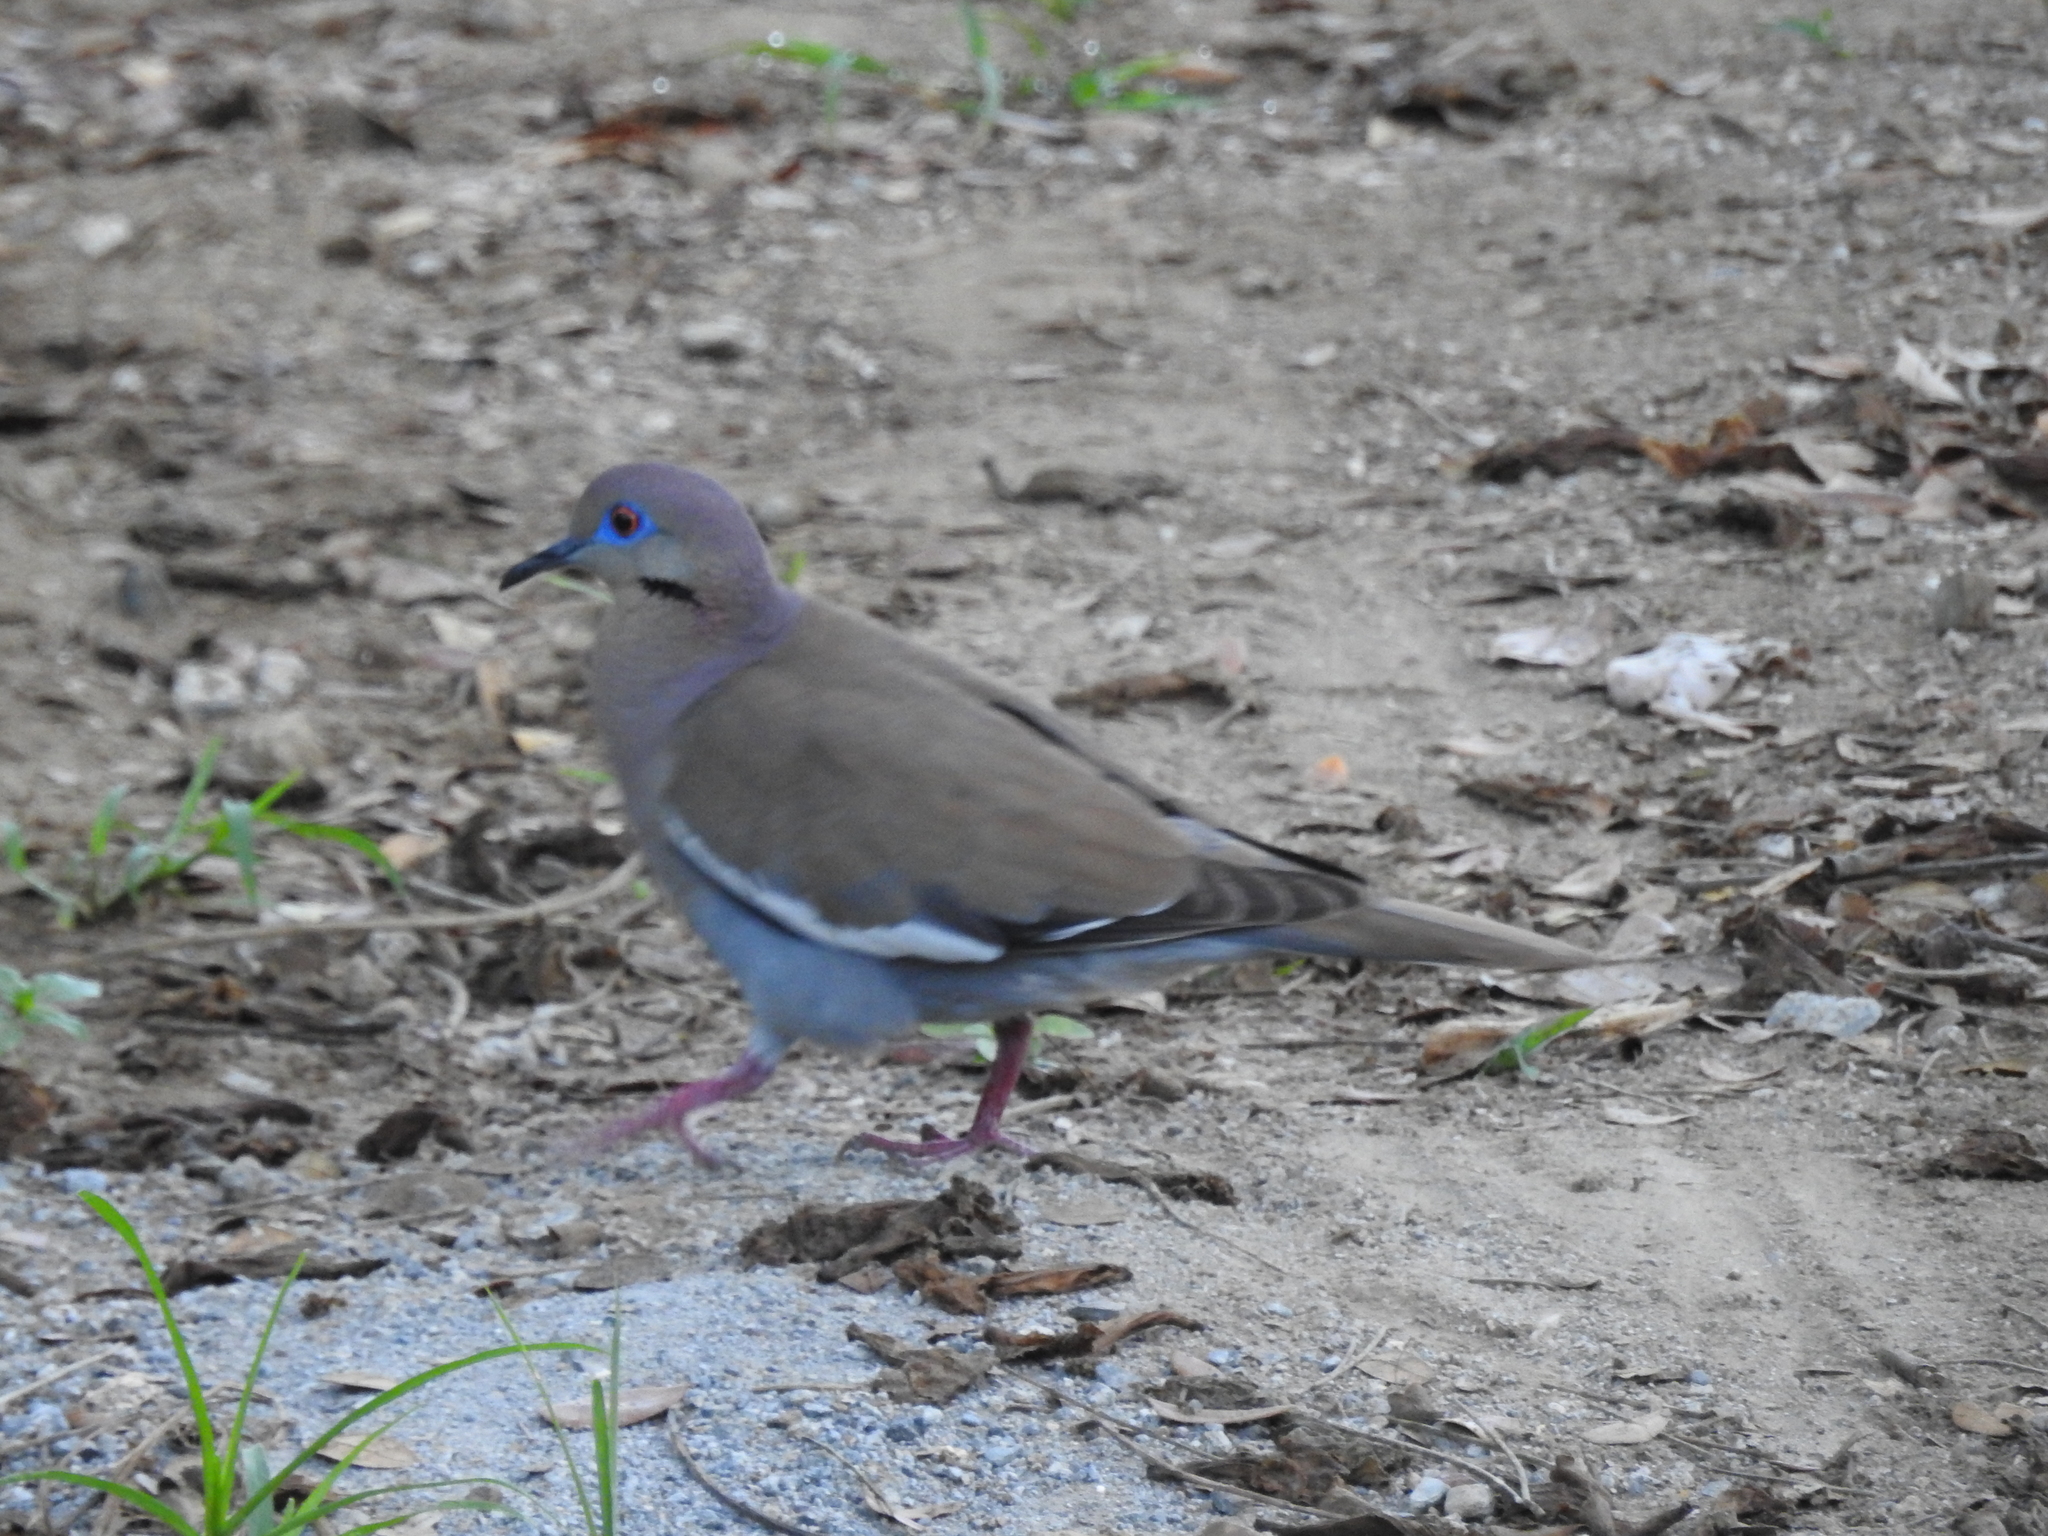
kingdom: Animalia
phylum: Chordata
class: Aves
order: Columbiformes
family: Columbidae
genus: Zenaida
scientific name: Zenaida asiatica
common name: White-winged dove
